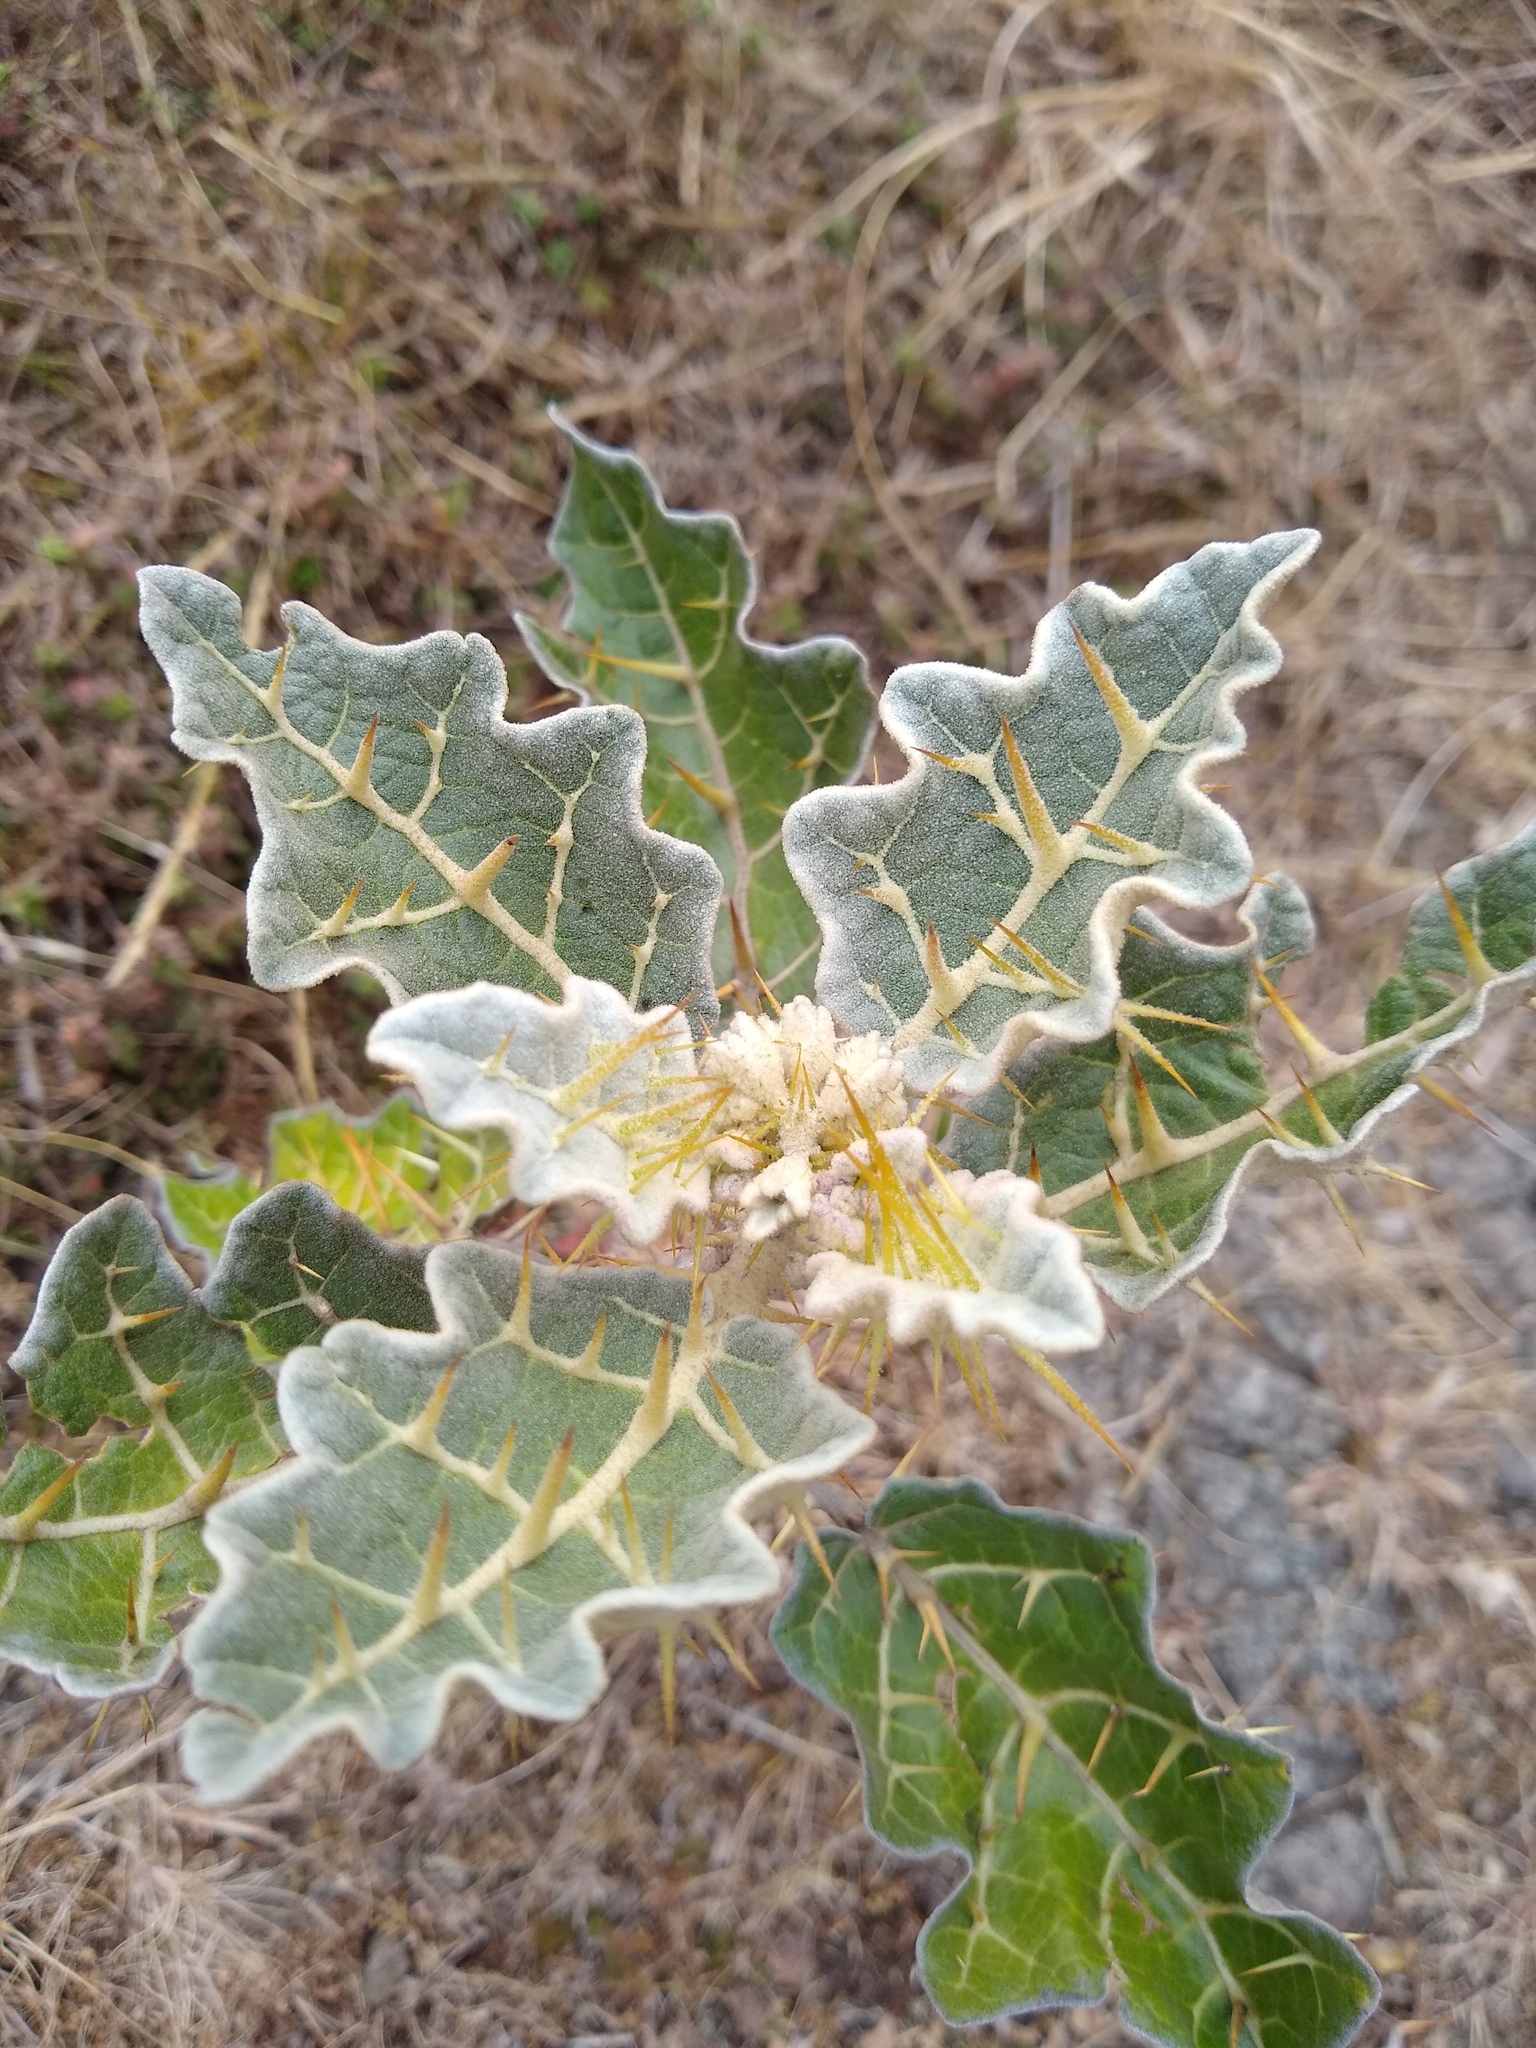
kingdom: Plantae
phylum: Tracheophyta
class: Magnoliopsida
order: Solanales
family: Solanaceae
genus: Solanum
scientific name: Solanum marginatum
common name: Purple african nightshade
